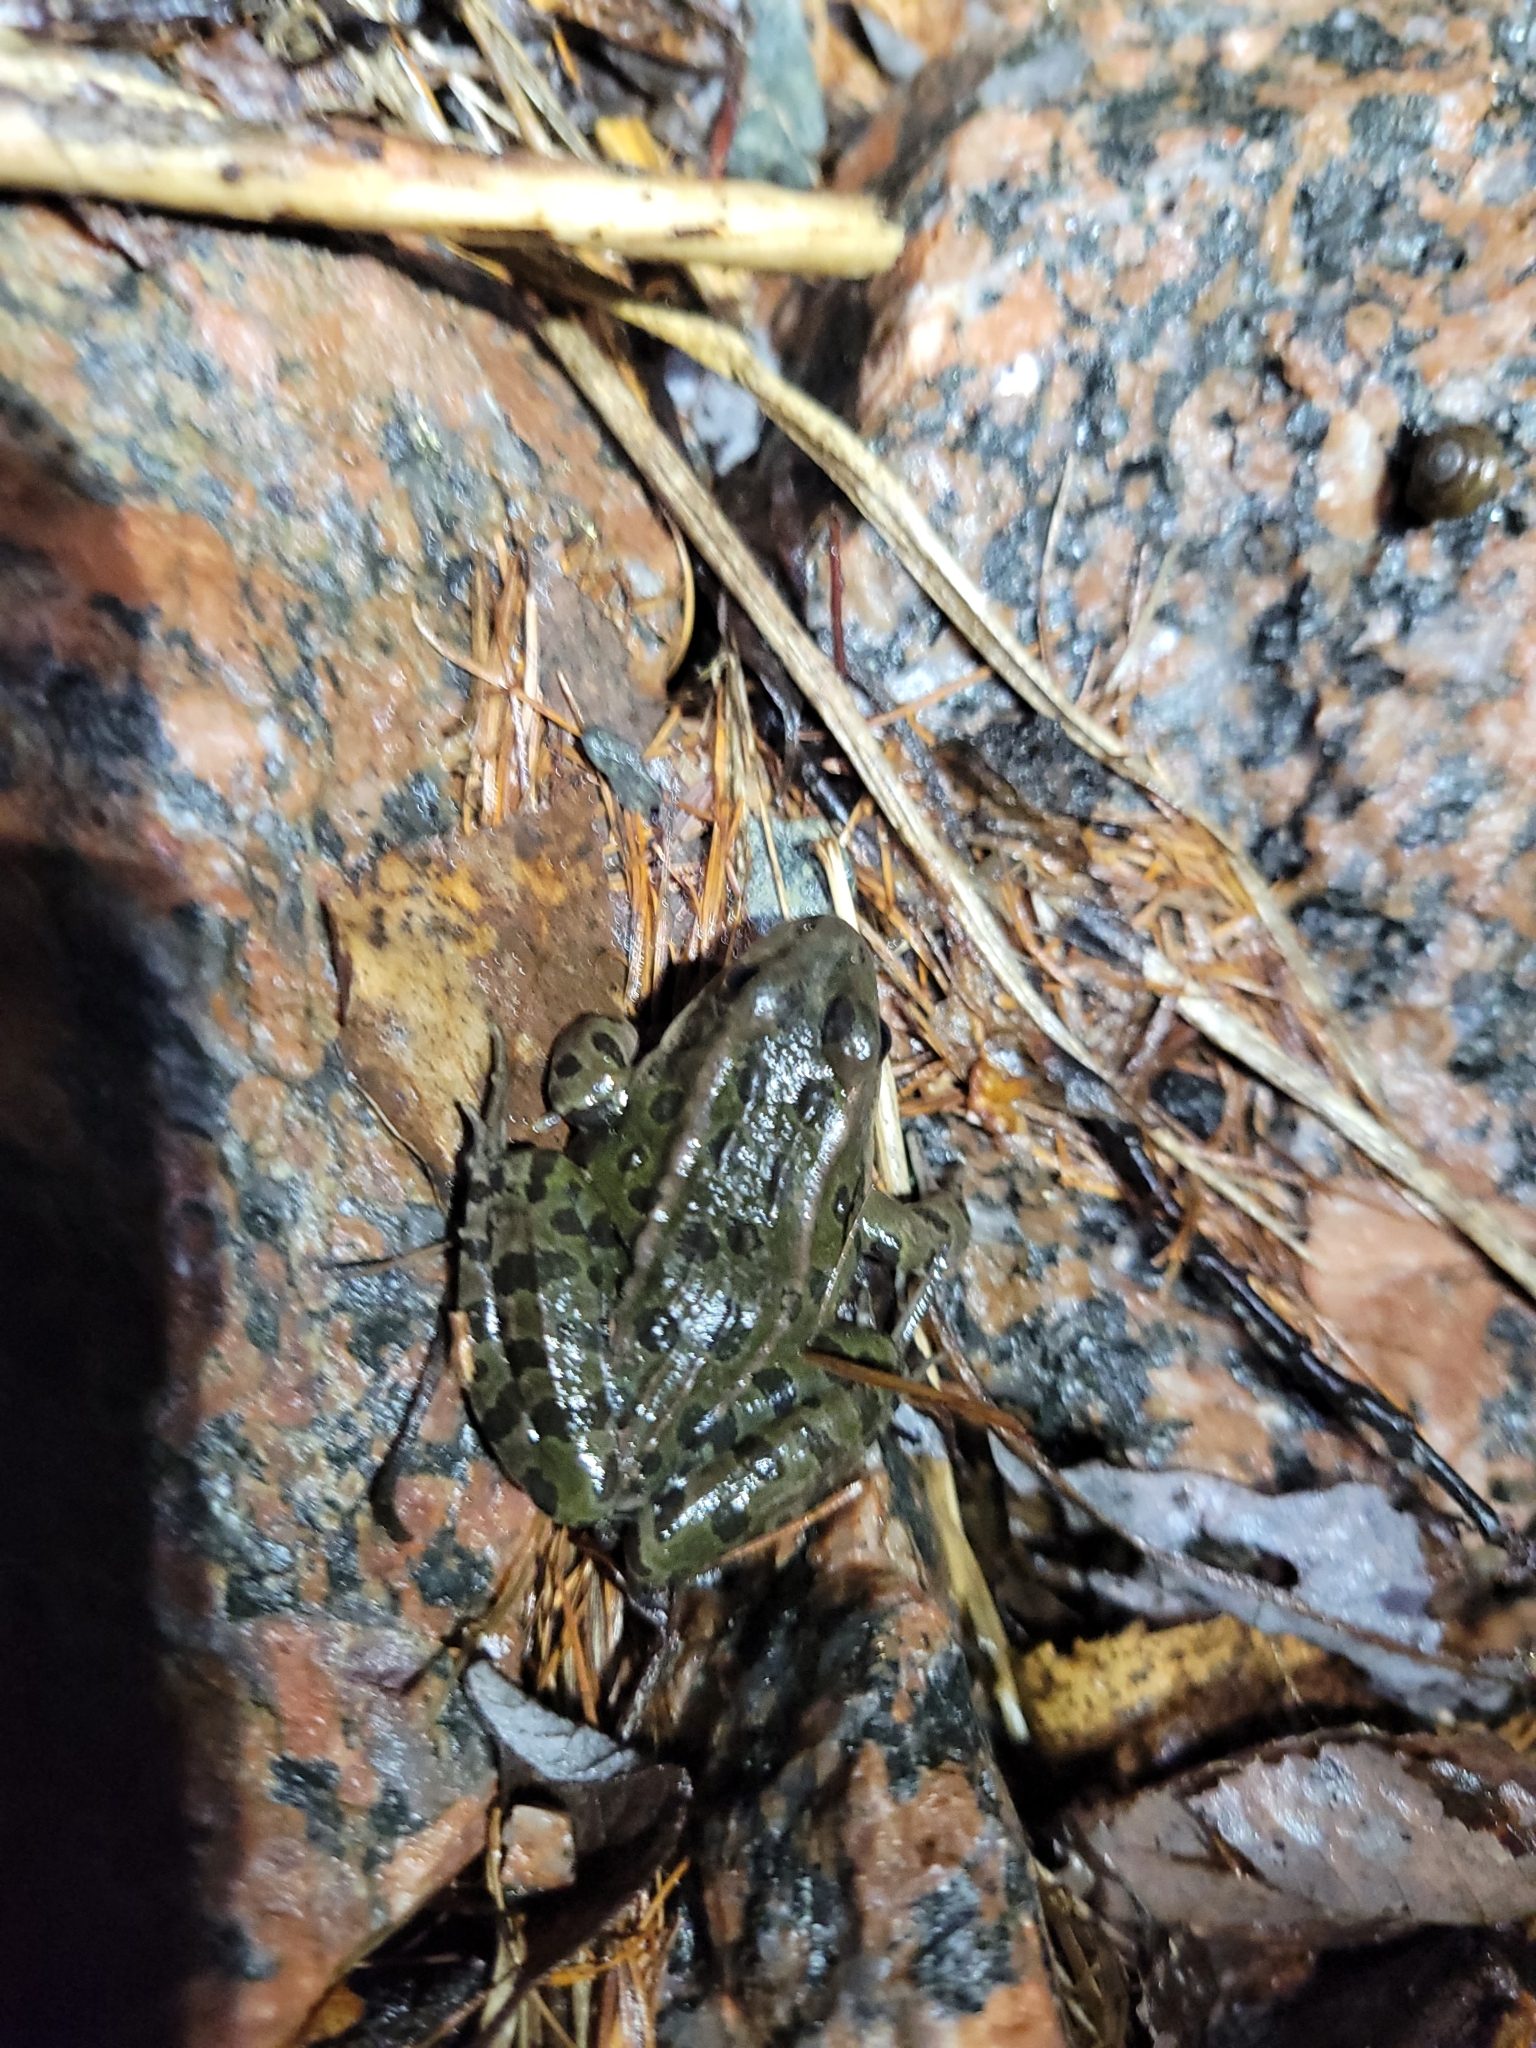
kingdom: Animalia
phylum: Chordata
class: Amphibia
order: Anura
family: Ranidae
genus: Lithobates
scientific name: Lithobates pipiens
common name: Northern leopard frog
